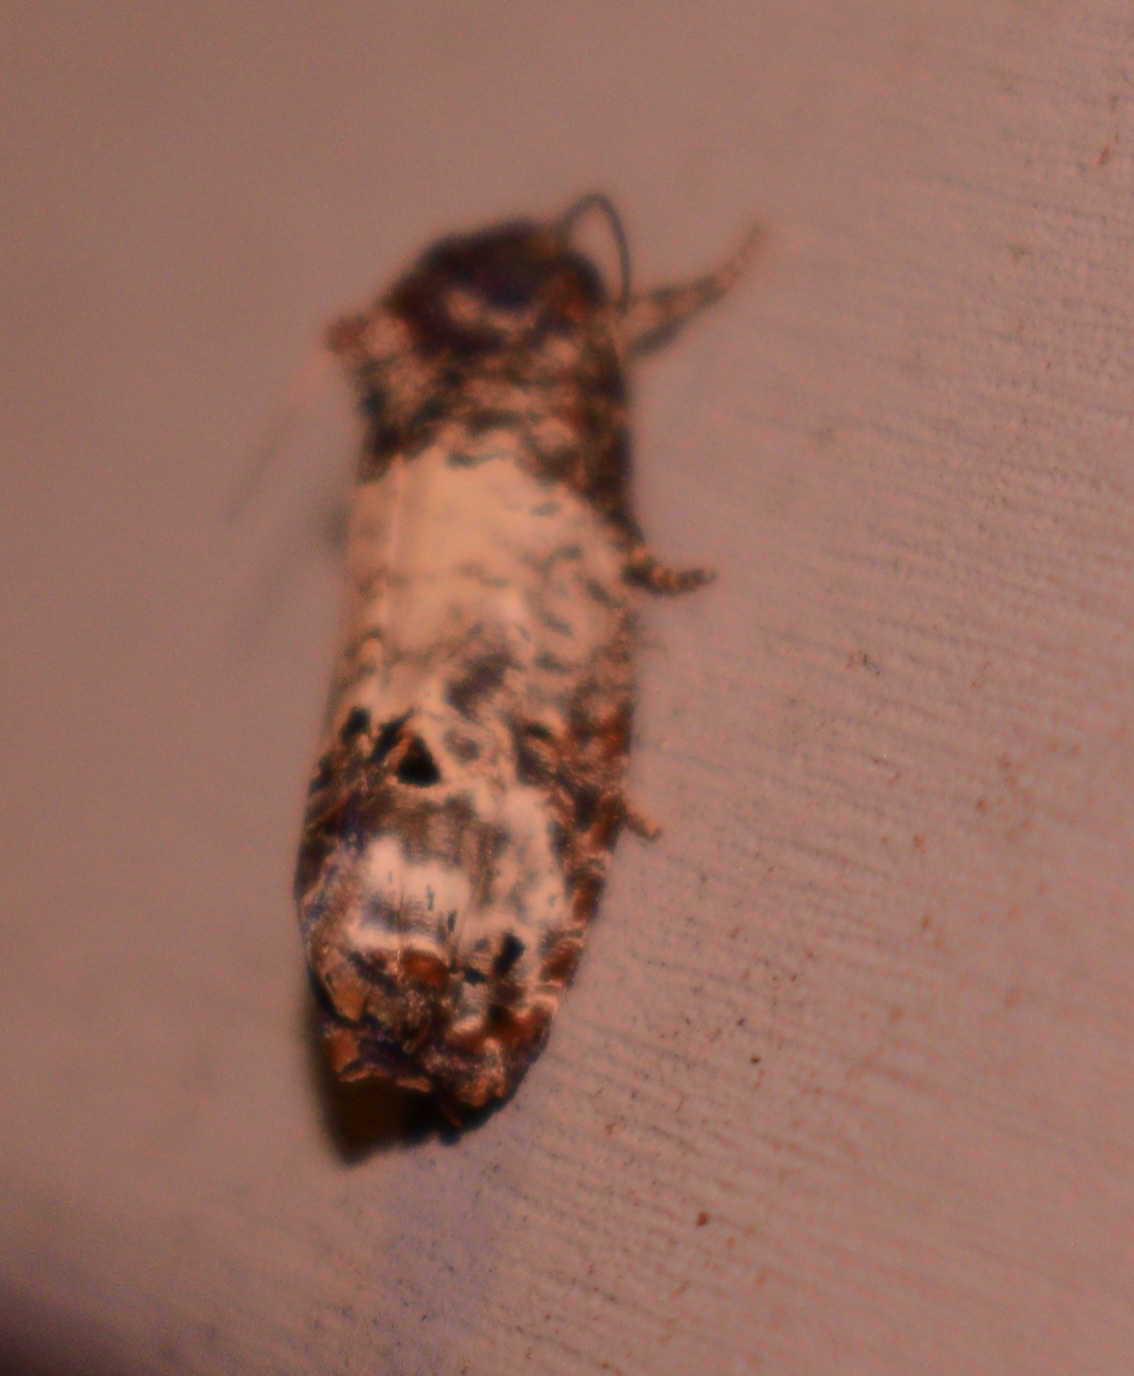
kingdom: Animalia
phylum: Arthropoda
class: Insecta
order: Lepidoptera
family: Tortricidae
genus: Epiblema
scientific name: Epiblema carolinana
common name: Gray-blotched epiblema moth
